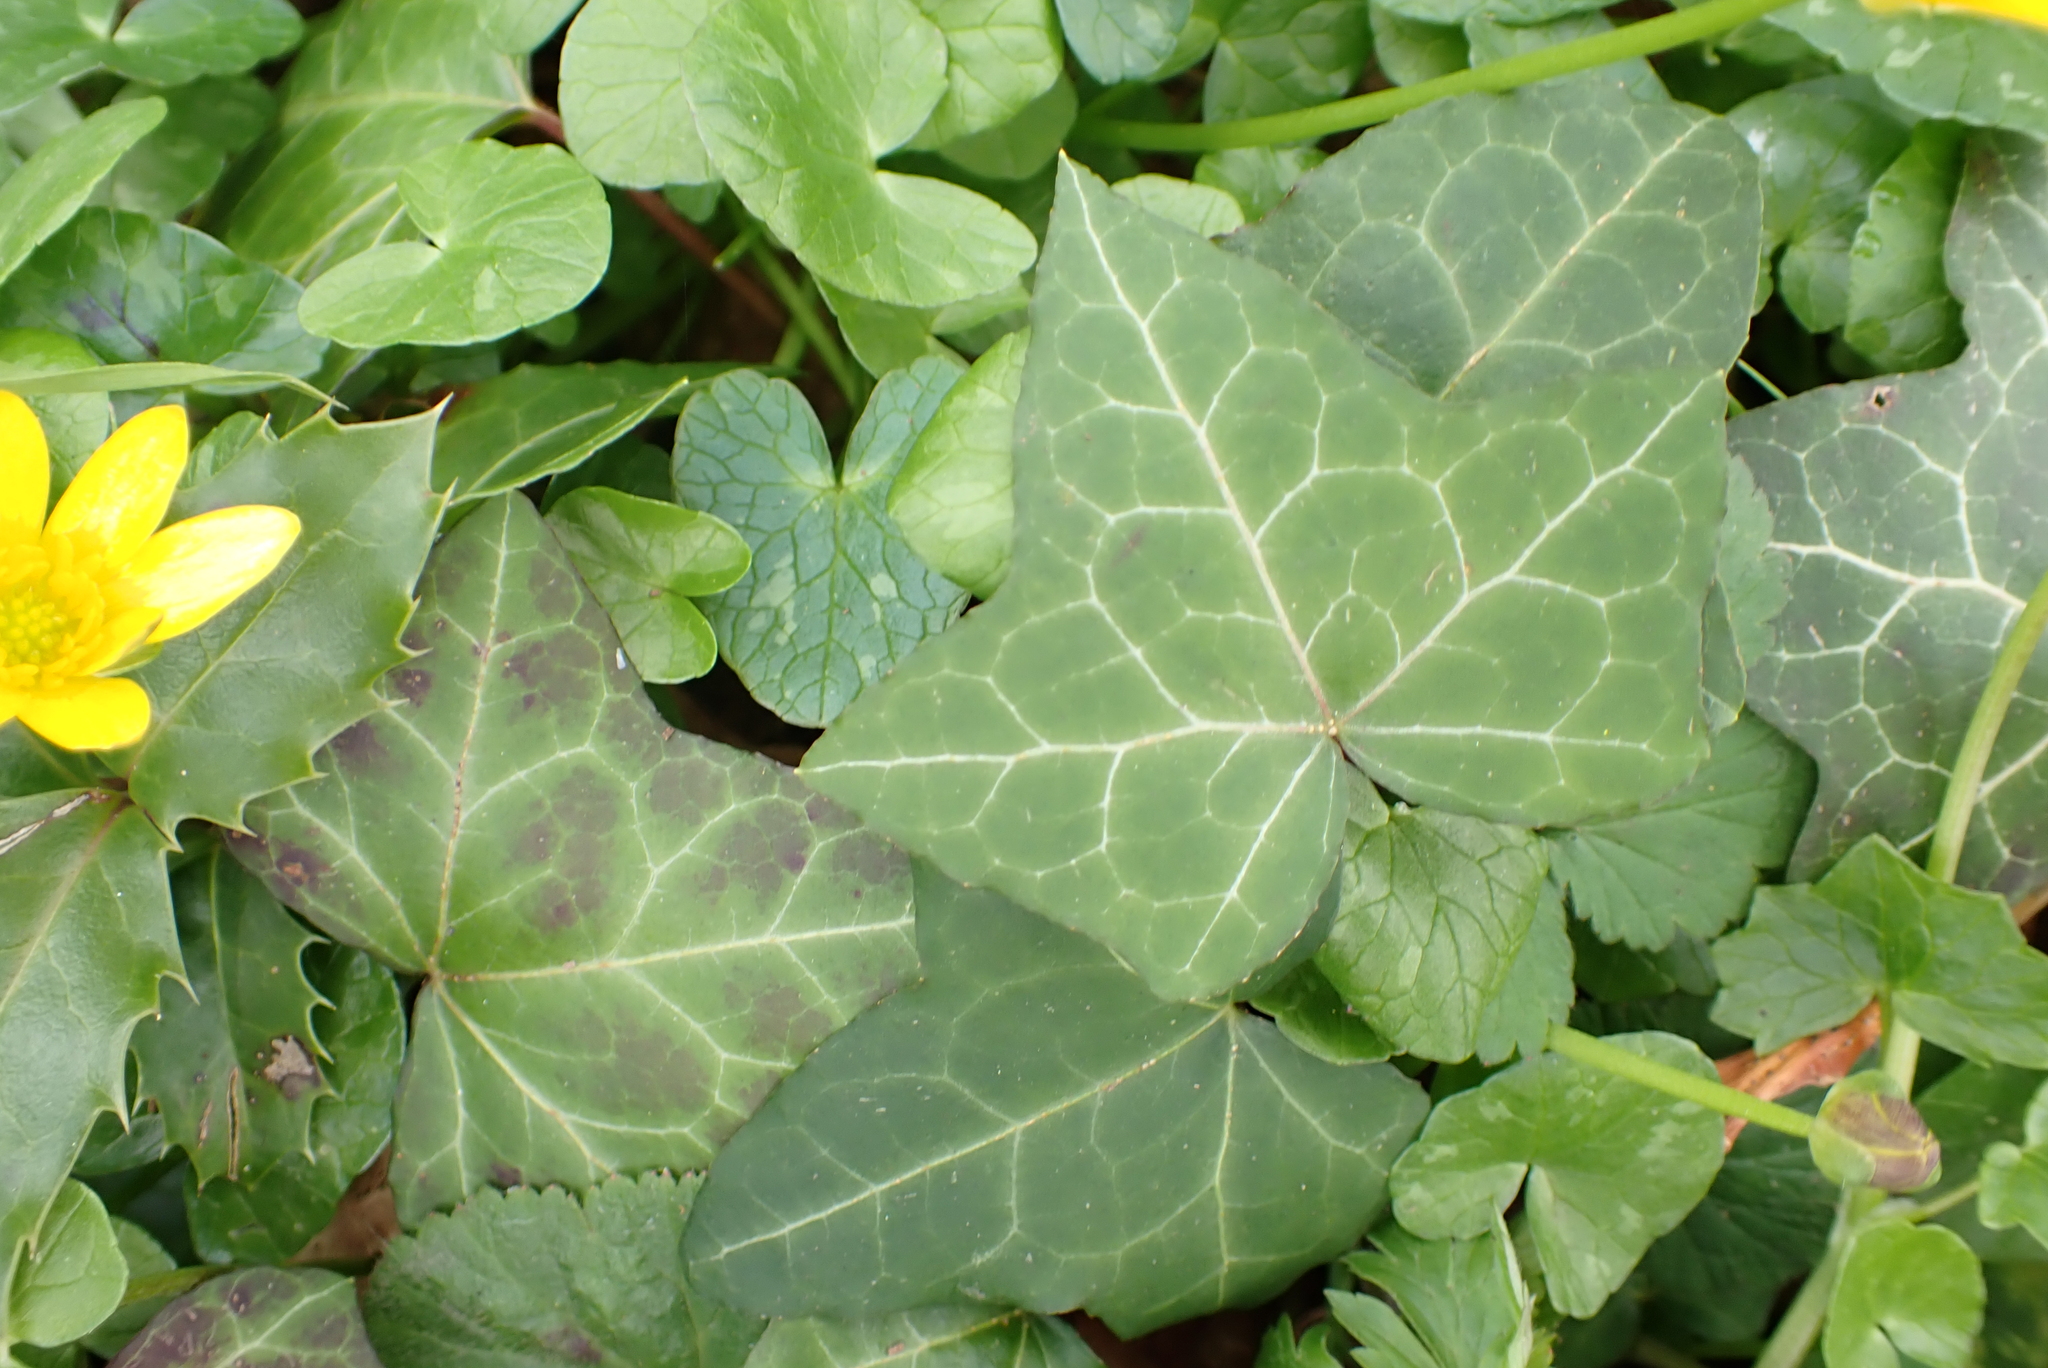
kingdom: Plantae
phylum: Tracheophyta
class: Magnoliopsida
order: Apiales
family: Araliaceae
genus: Hedera
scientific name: Hedera helix
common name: Ivy
